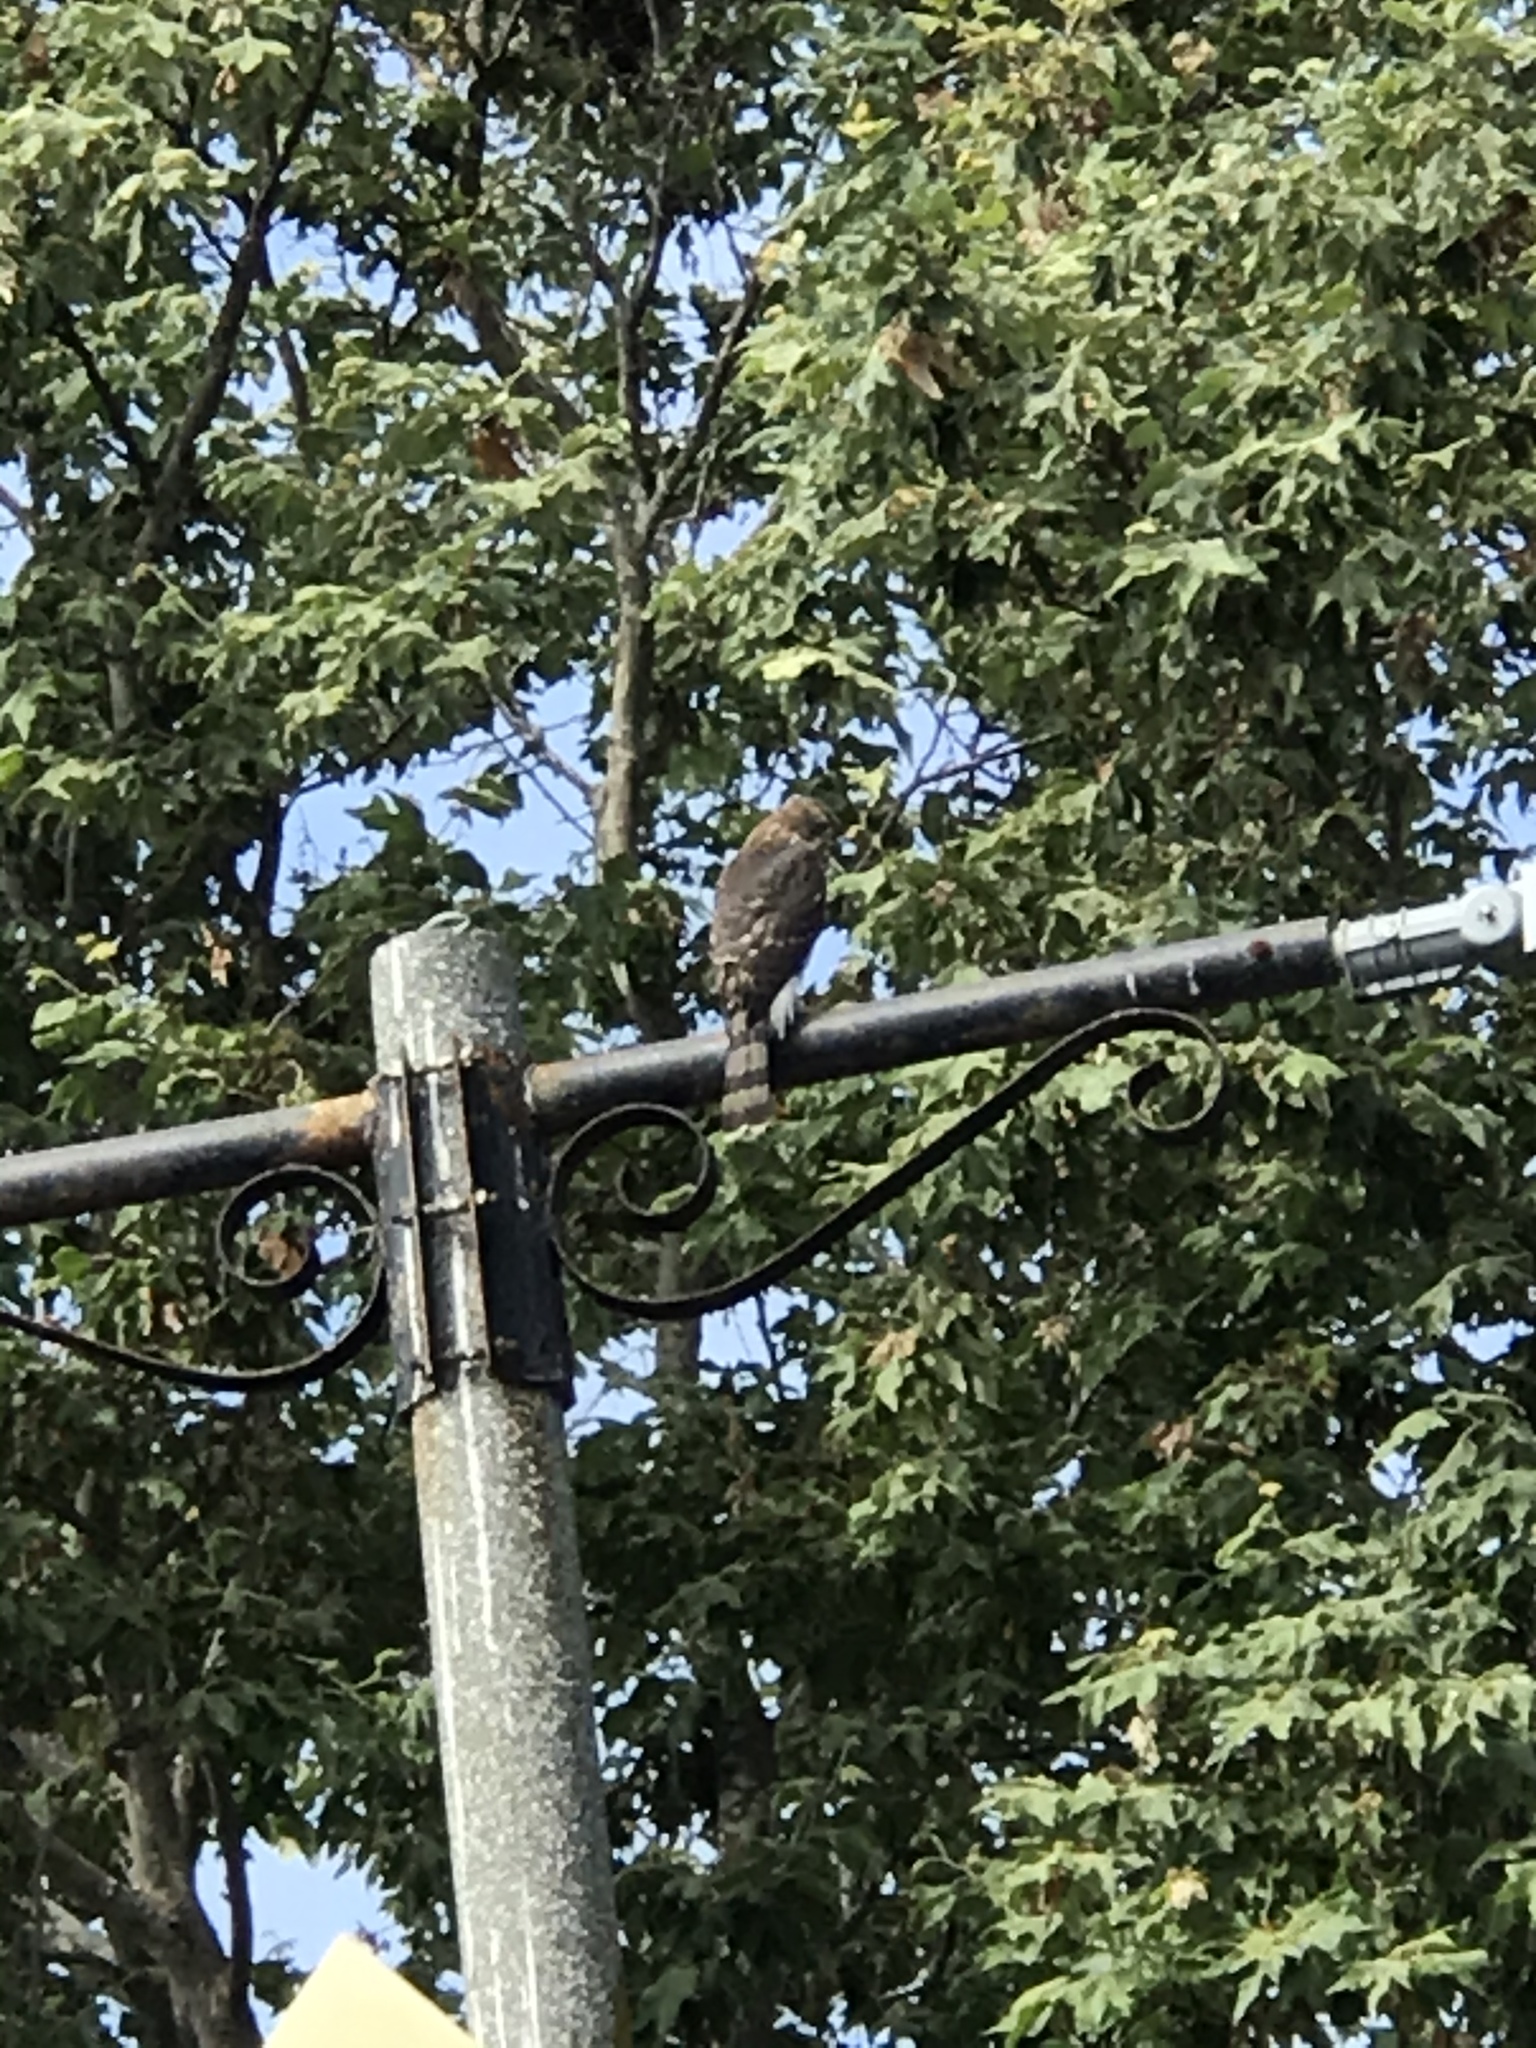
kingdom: Animalia
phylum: Chordata
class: Aves
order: Accipitriformes
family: Accipitridae
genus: Accipiter
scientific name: Accipiter cooperii
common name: Cooper's hawk
